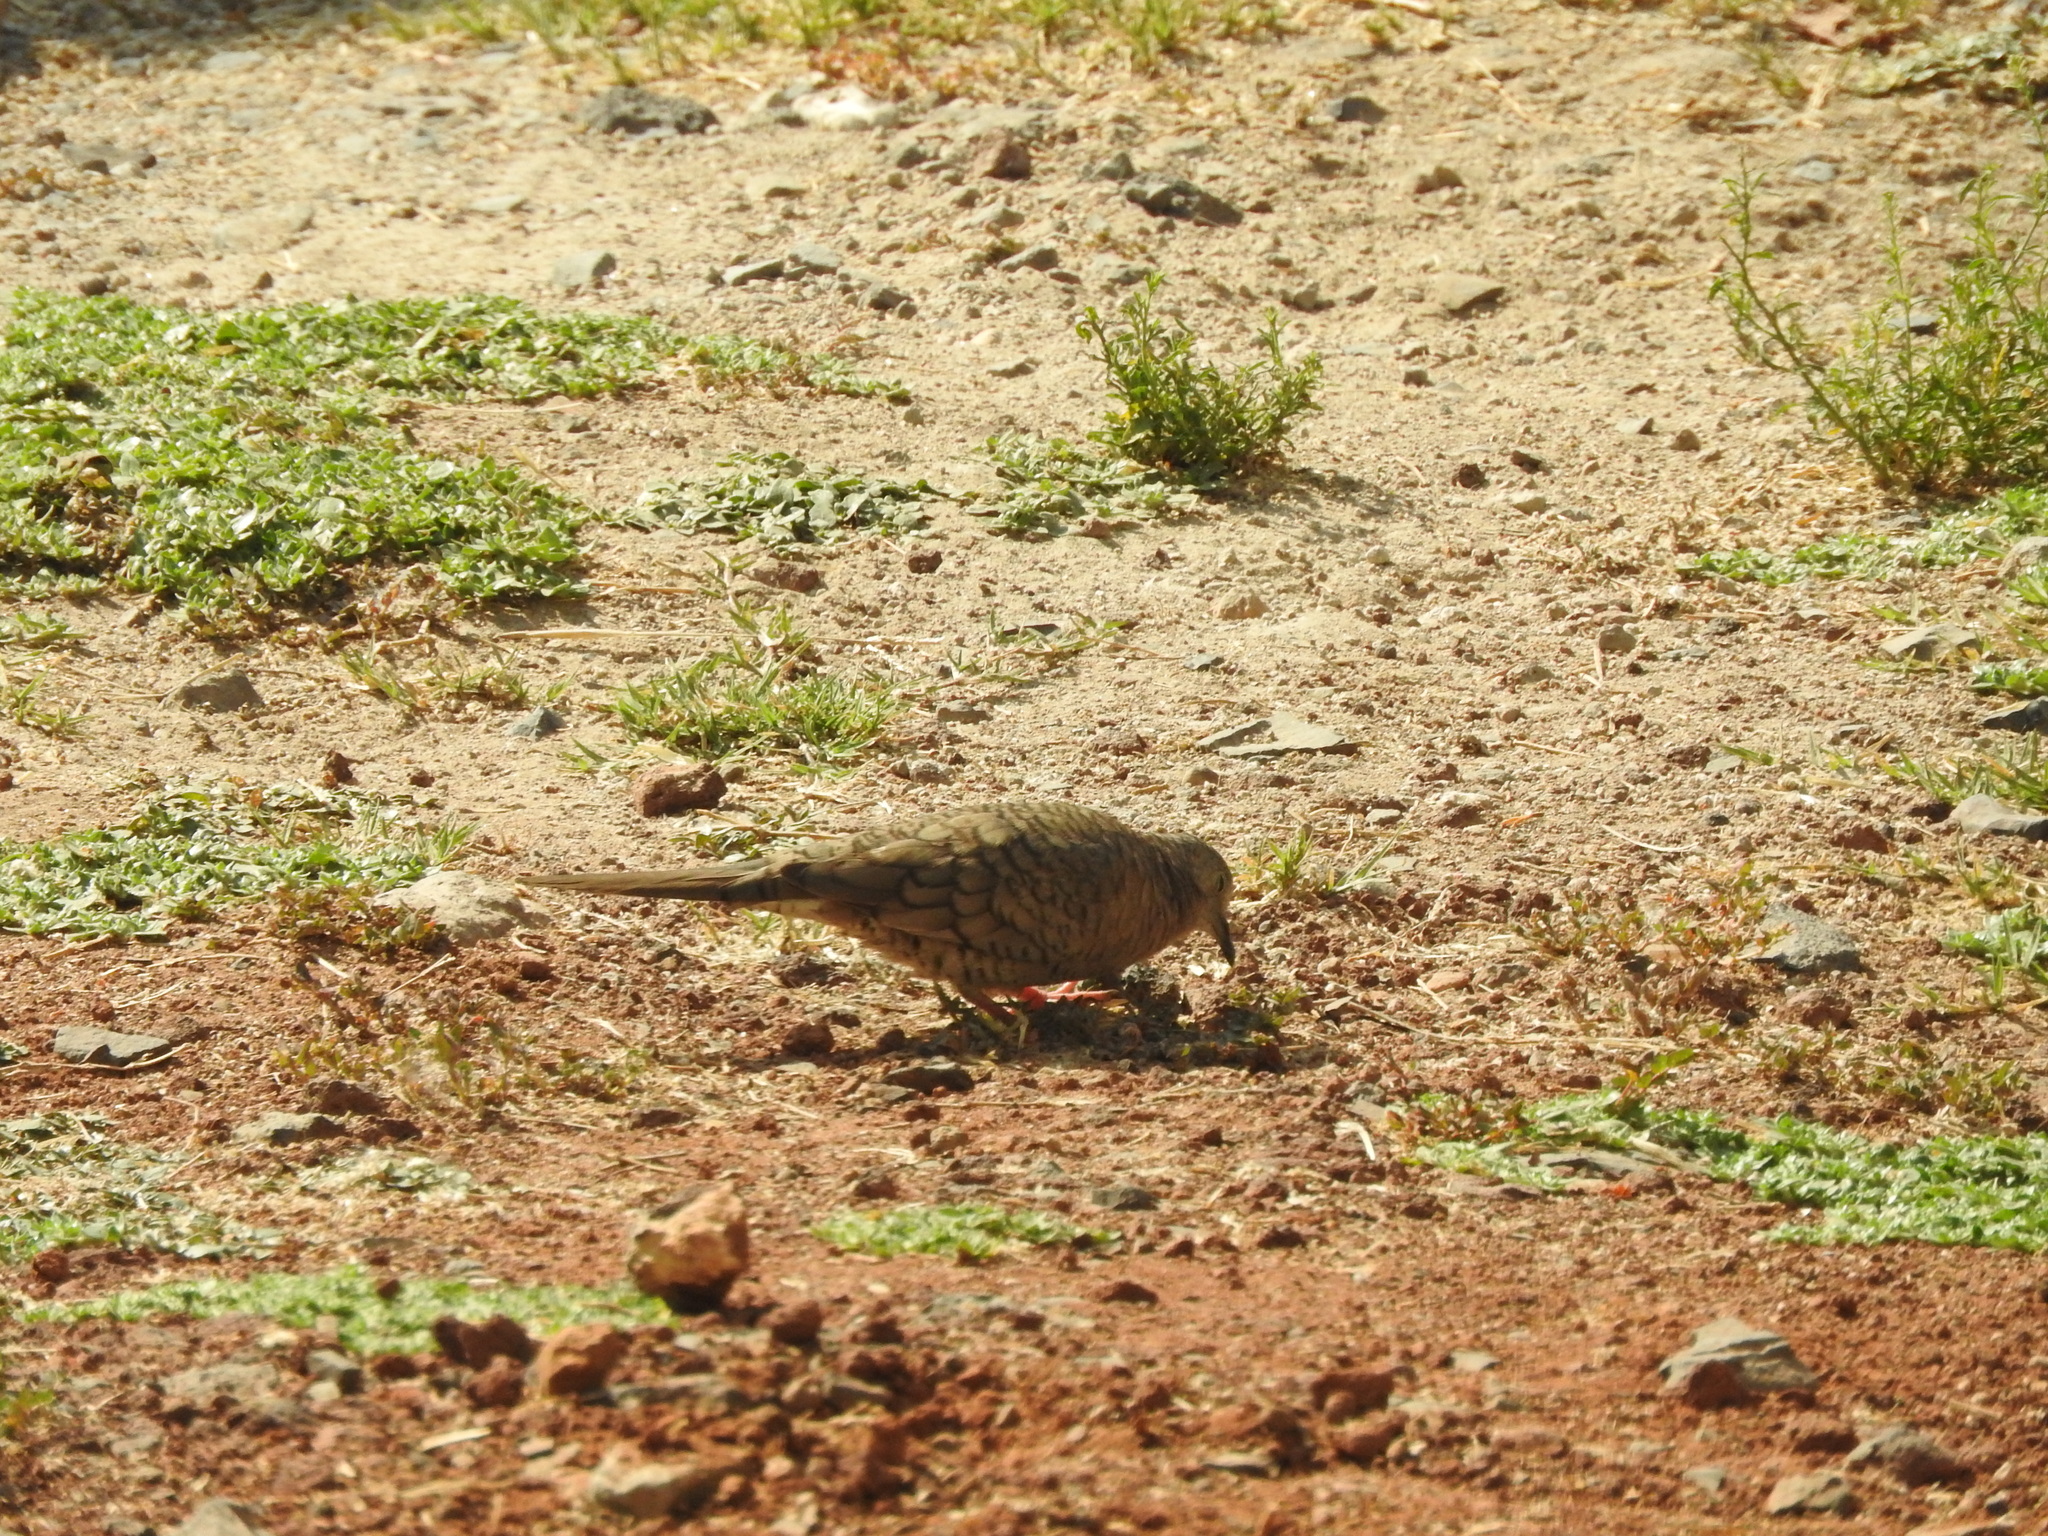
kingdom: Animalia
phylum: Chordata
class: Aves
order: Columbiformes
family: Columbidae
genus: Columbina
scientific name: Columbina inca
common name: Inca dove
